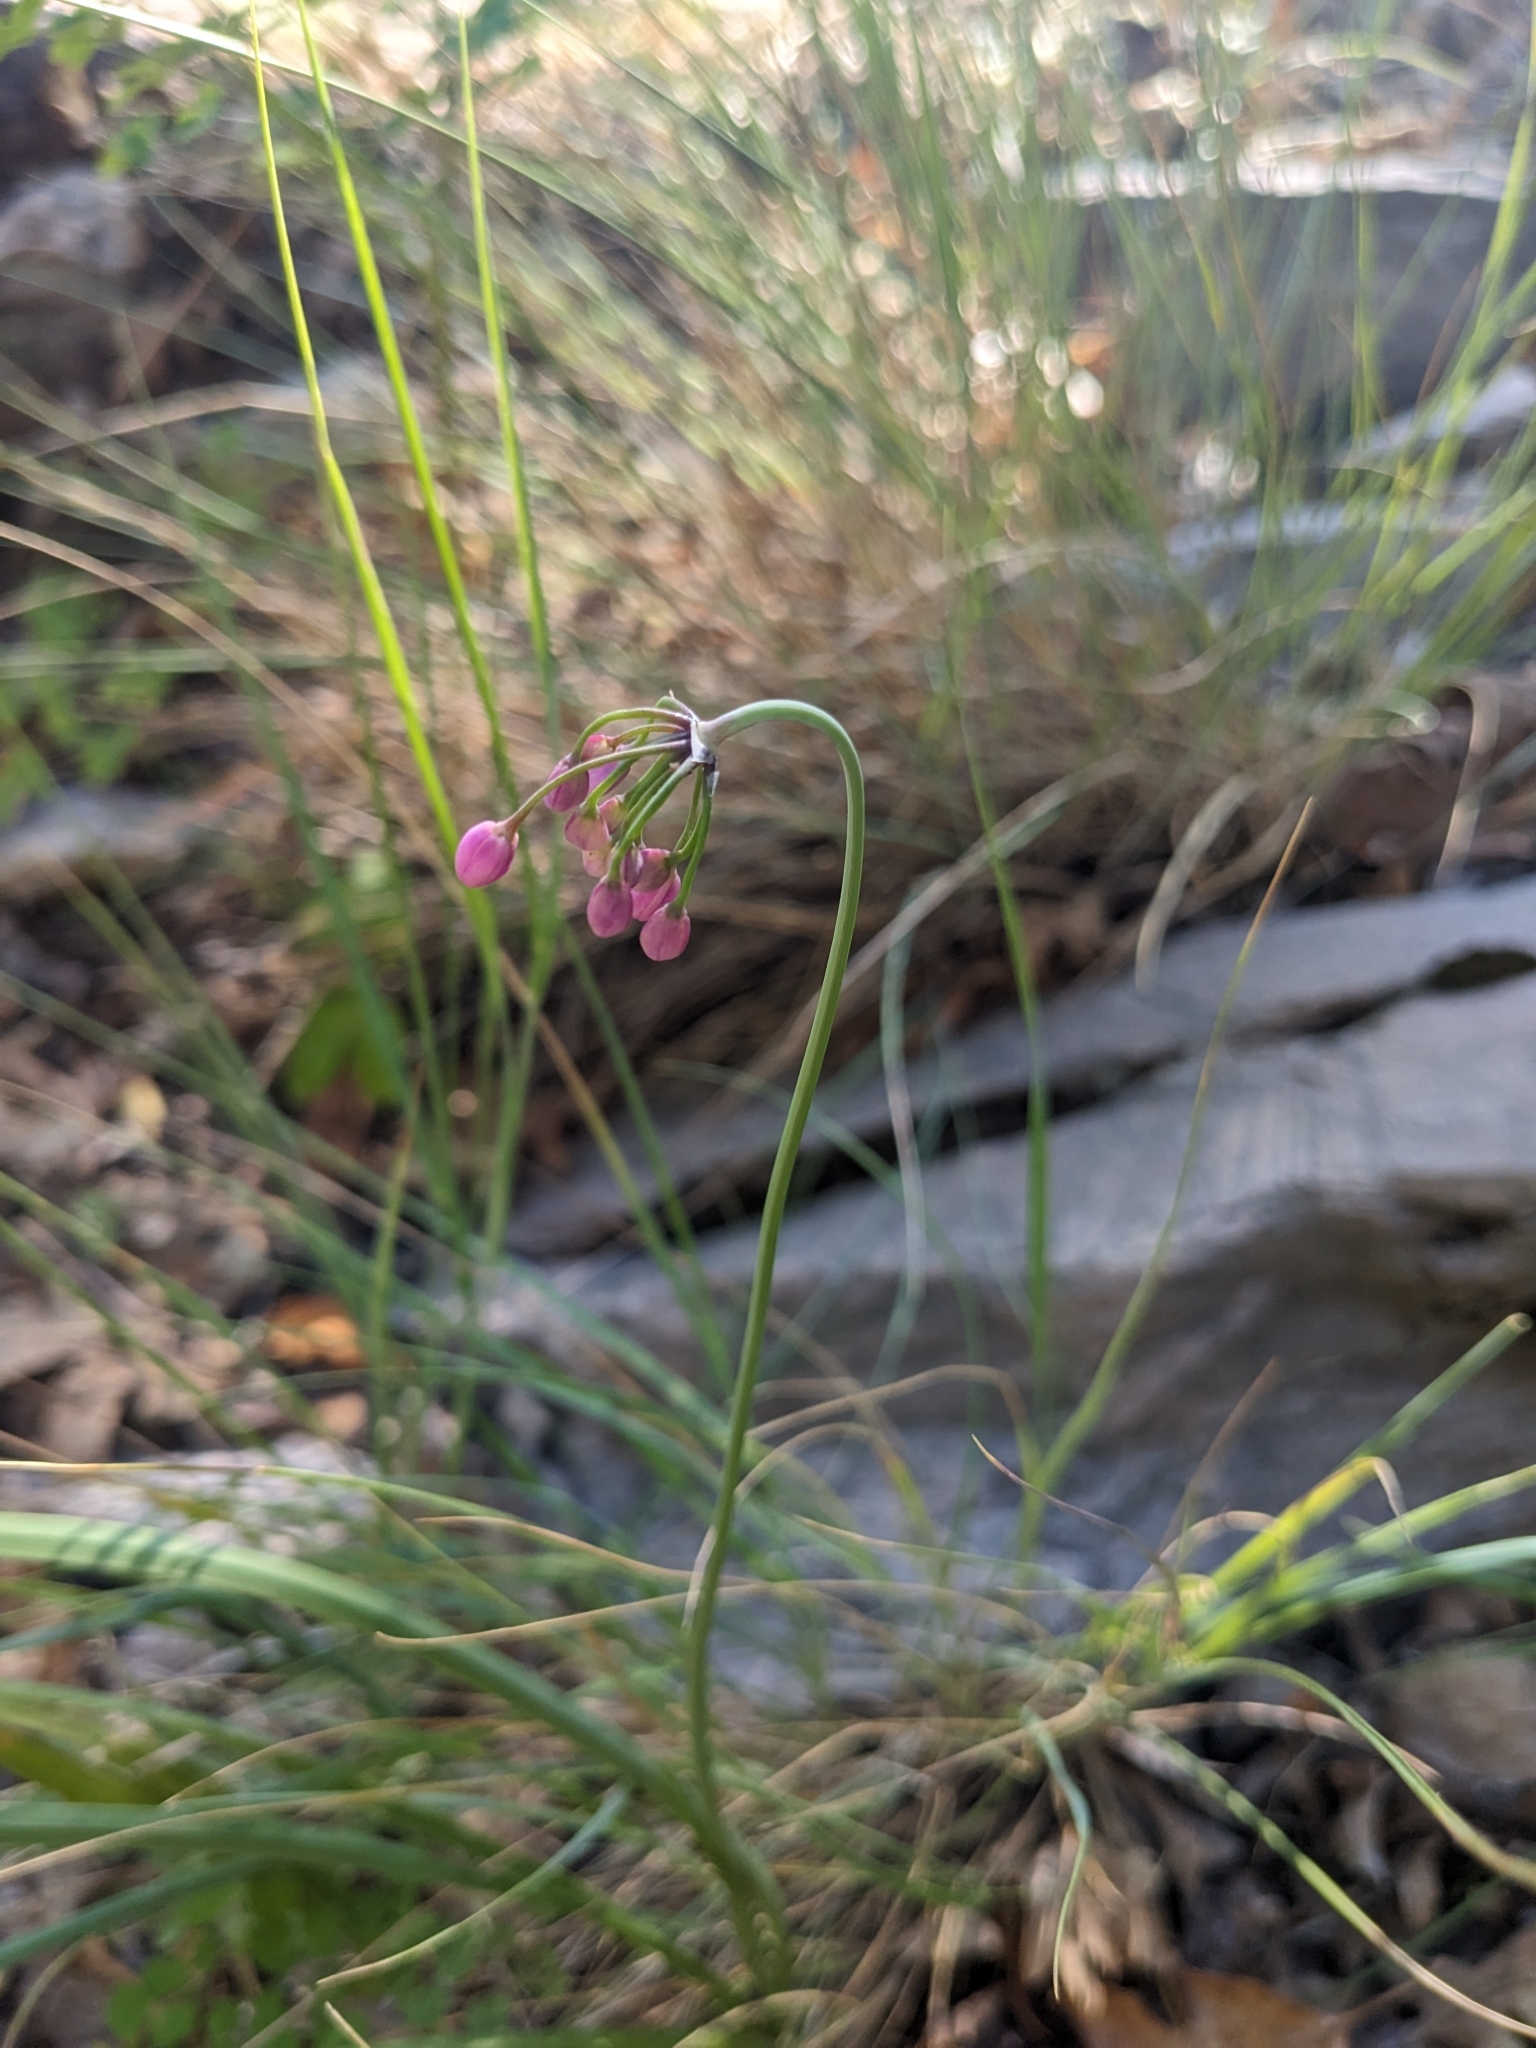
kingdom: Plantae
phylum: Tracheophyta
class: Liliopsida
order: Asparagales
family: Amaryllidaceae
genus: Allium
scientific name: Allium cernuum
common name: Nodding onion
